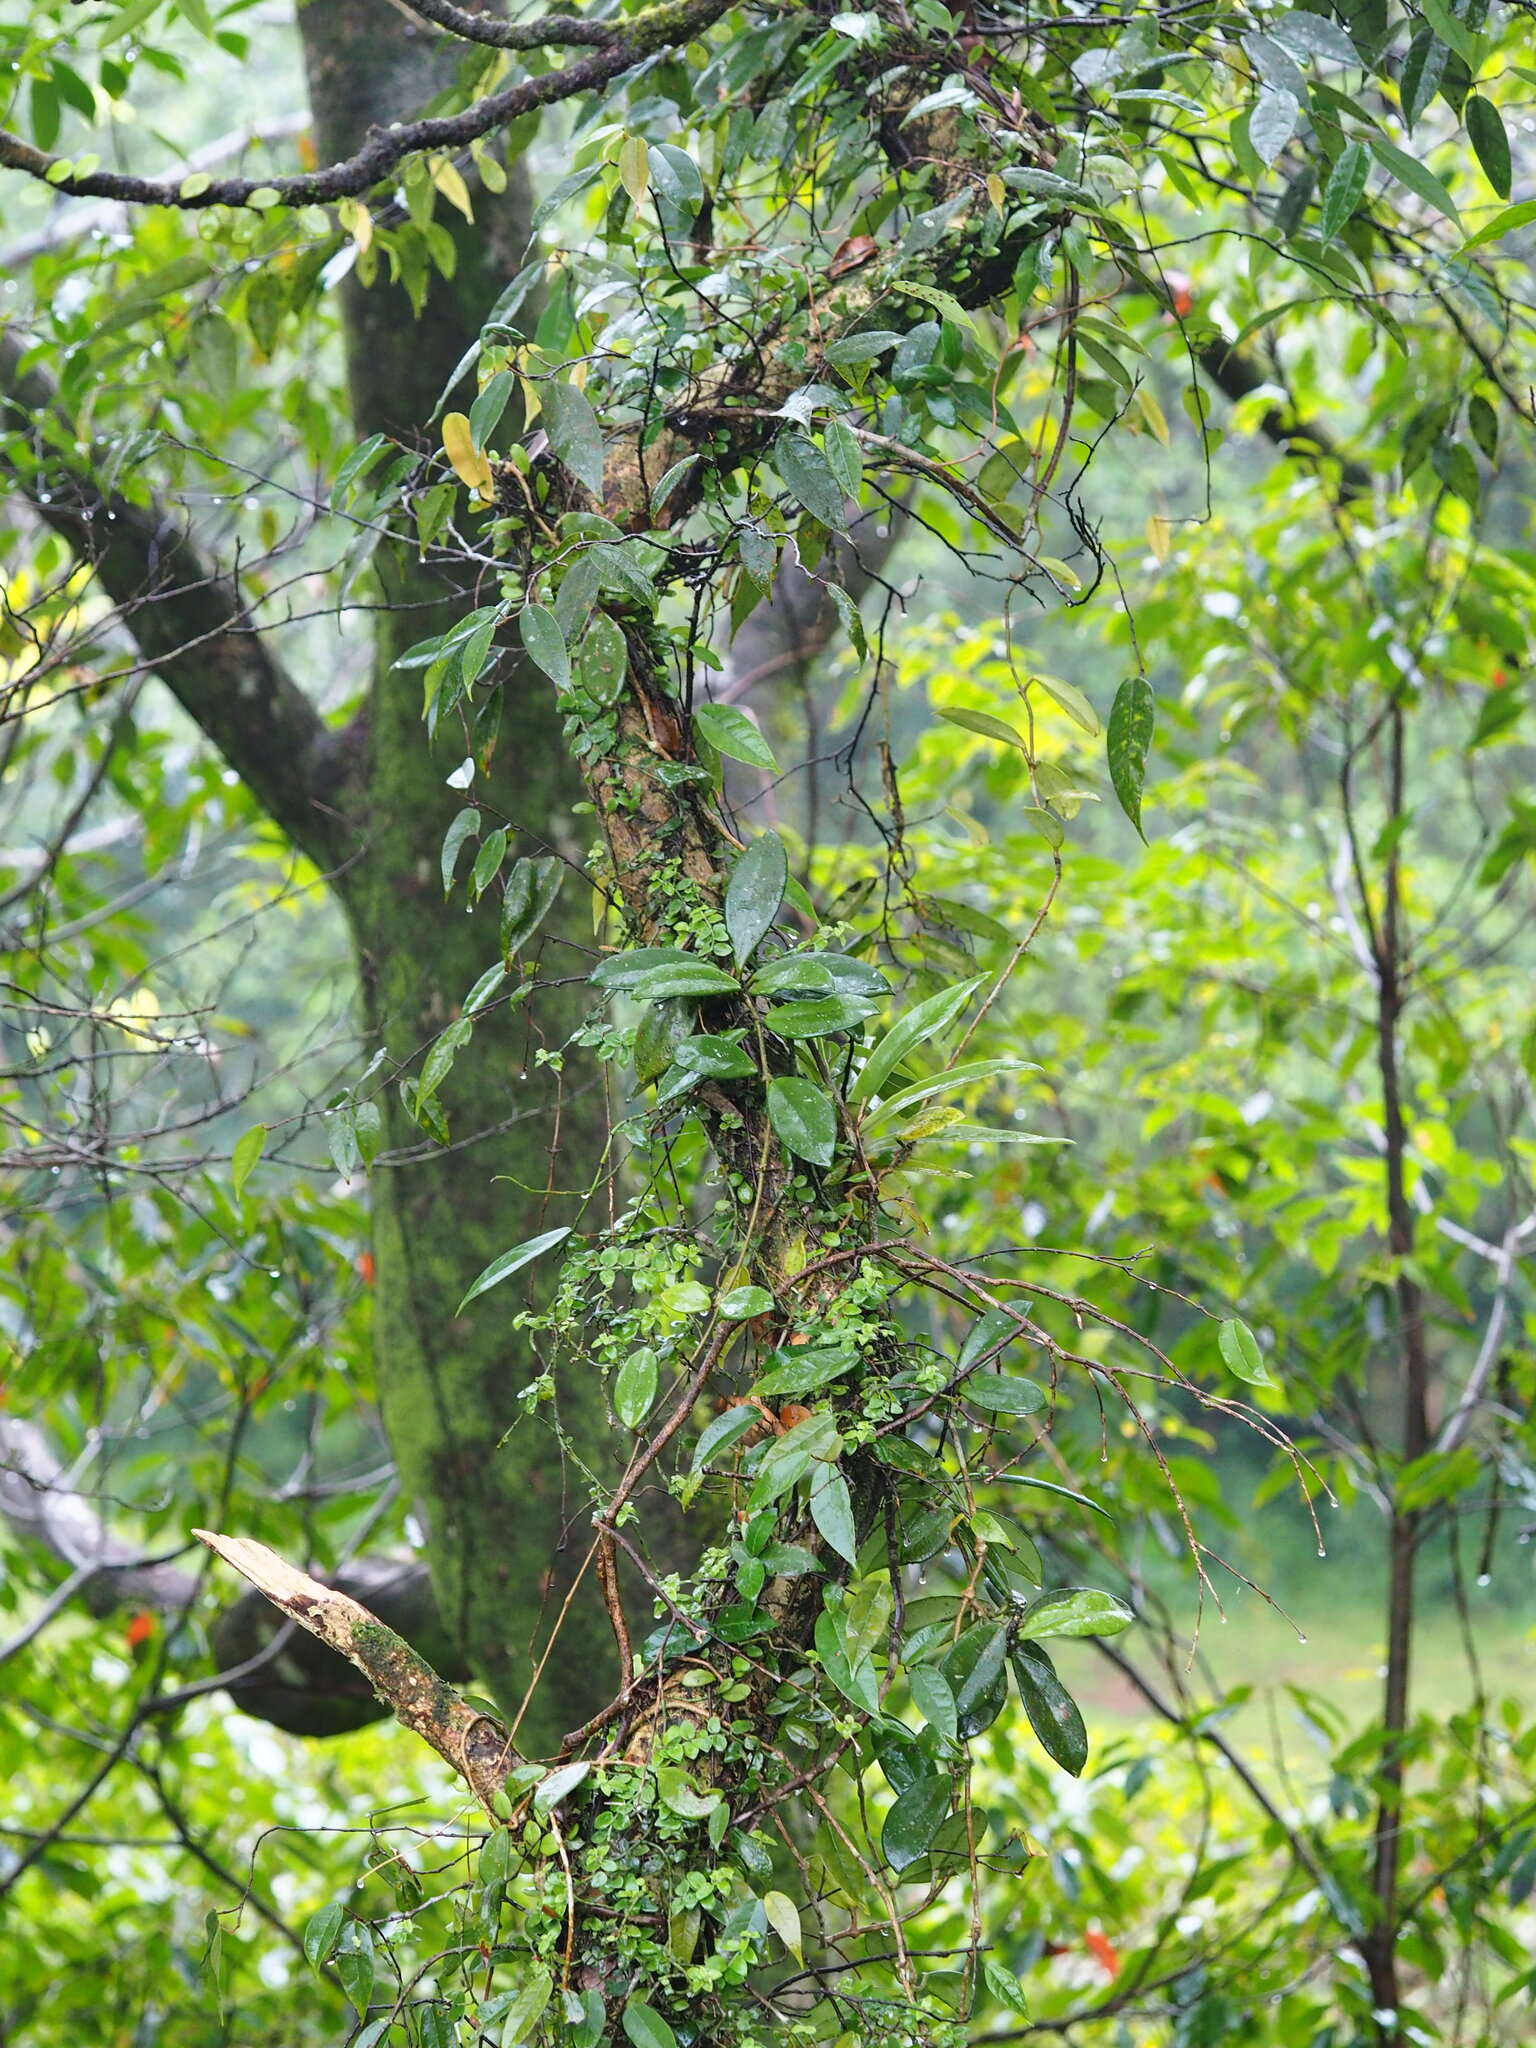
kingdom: Plantae
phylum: Tracheophyta
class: Magnoliopsida
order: Gentianales
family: Apocynaceae
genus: Hoya
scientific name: Hoya carnosa
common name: Honeyplant
